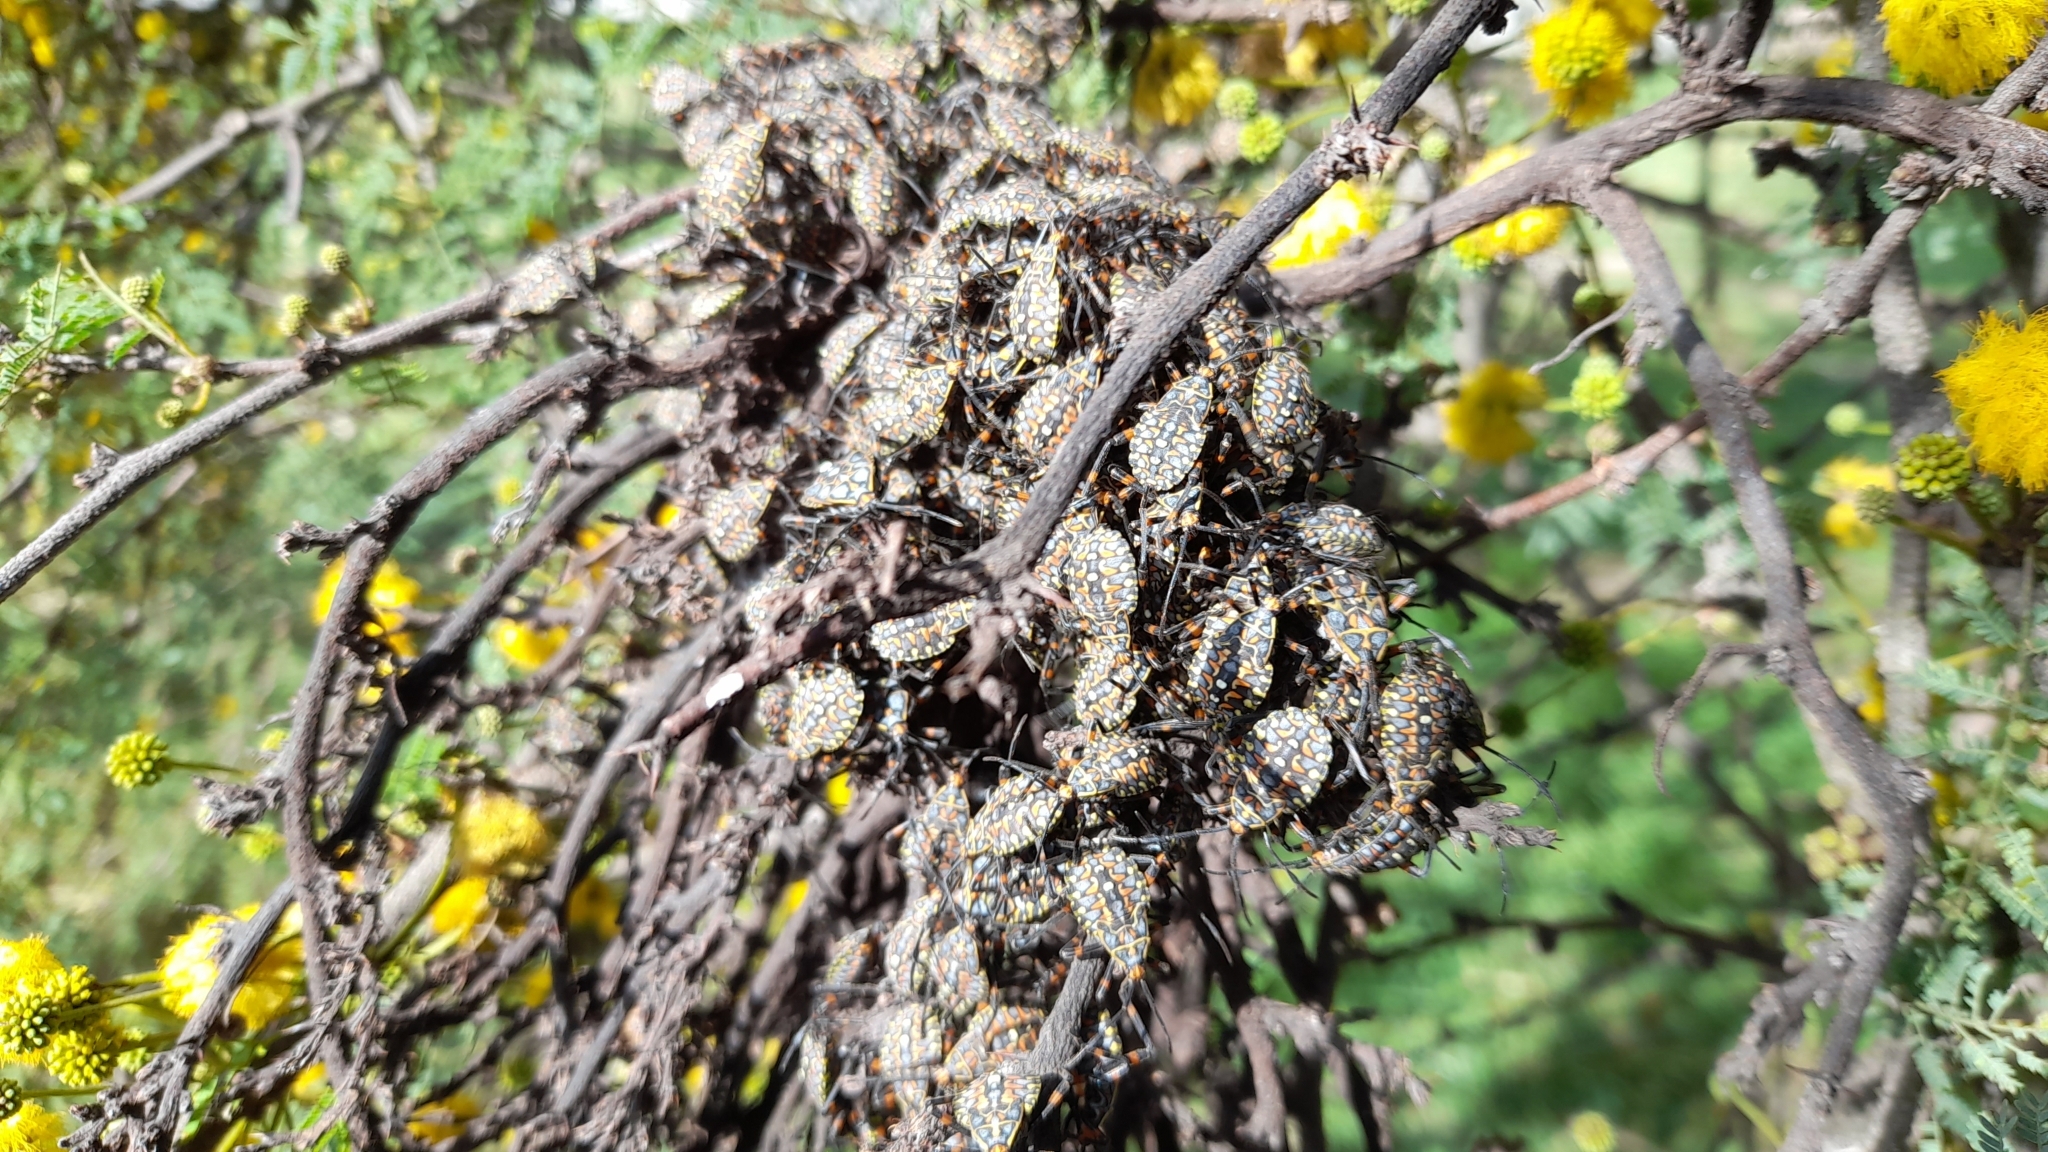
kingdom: Animalia
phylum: Arthropoda
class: Insecta
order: Hemiptera
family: Coreidae
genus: Pachylis
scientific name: Pachylis argentinus
